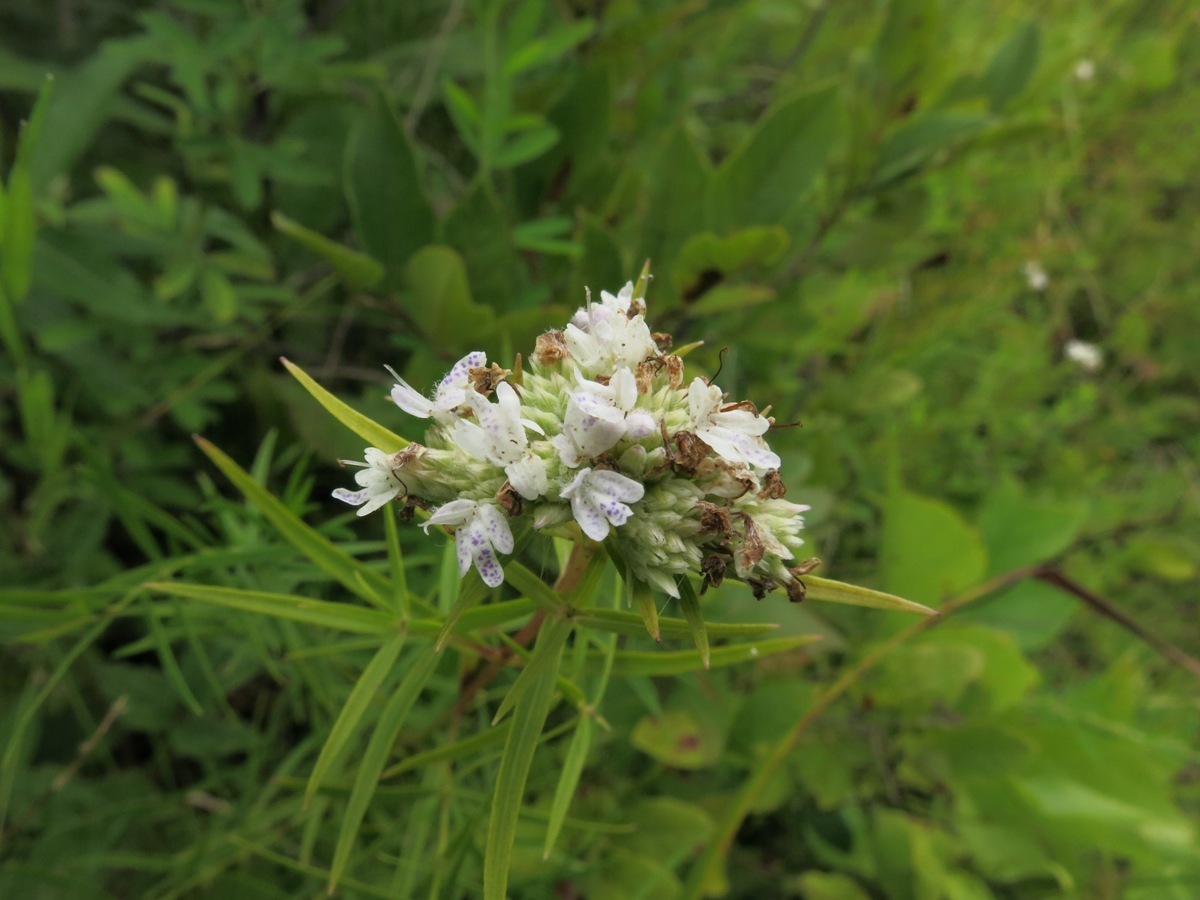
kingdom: Plantae
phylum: Tracheophyta
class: Magnoliopsida
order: Lamiales
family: Lamiaceae
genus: Pycnanthemum
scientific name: Pycnanthemum tenuifolium
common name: Narrow-leaf mountain-mint
